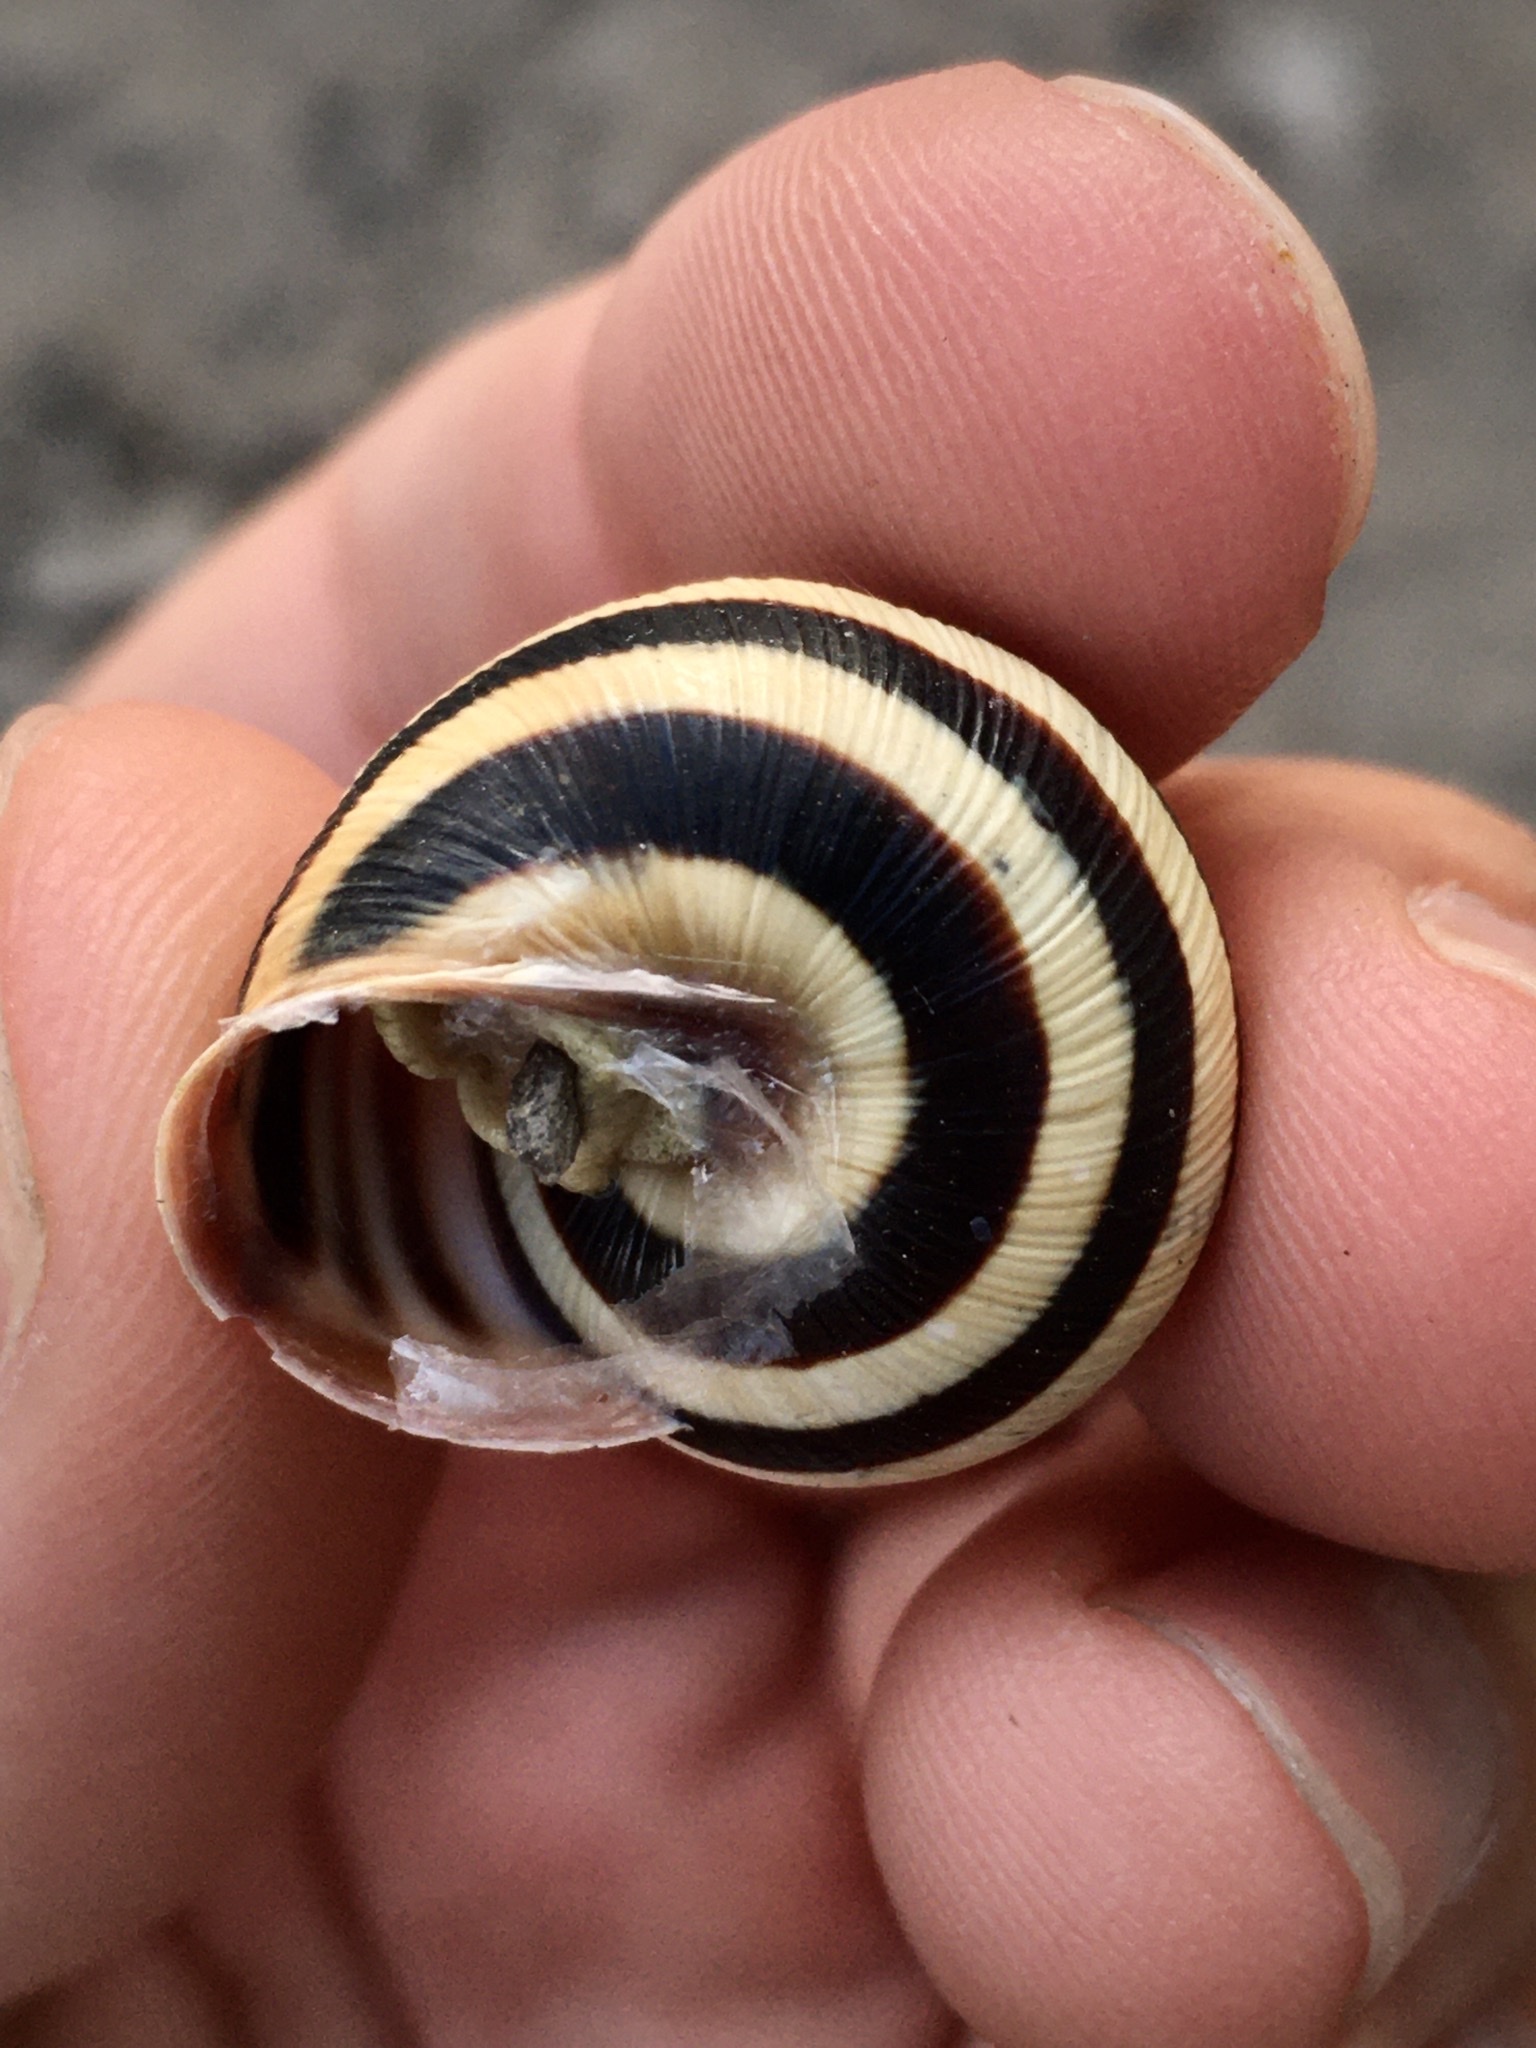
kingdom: Animalia
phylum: Mollusca
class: Gastropoda
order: Stylommatophora
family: Helicidae
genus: Caucasotachea
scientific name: Caucasotachea vindobonensis
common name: European helicid land snail
